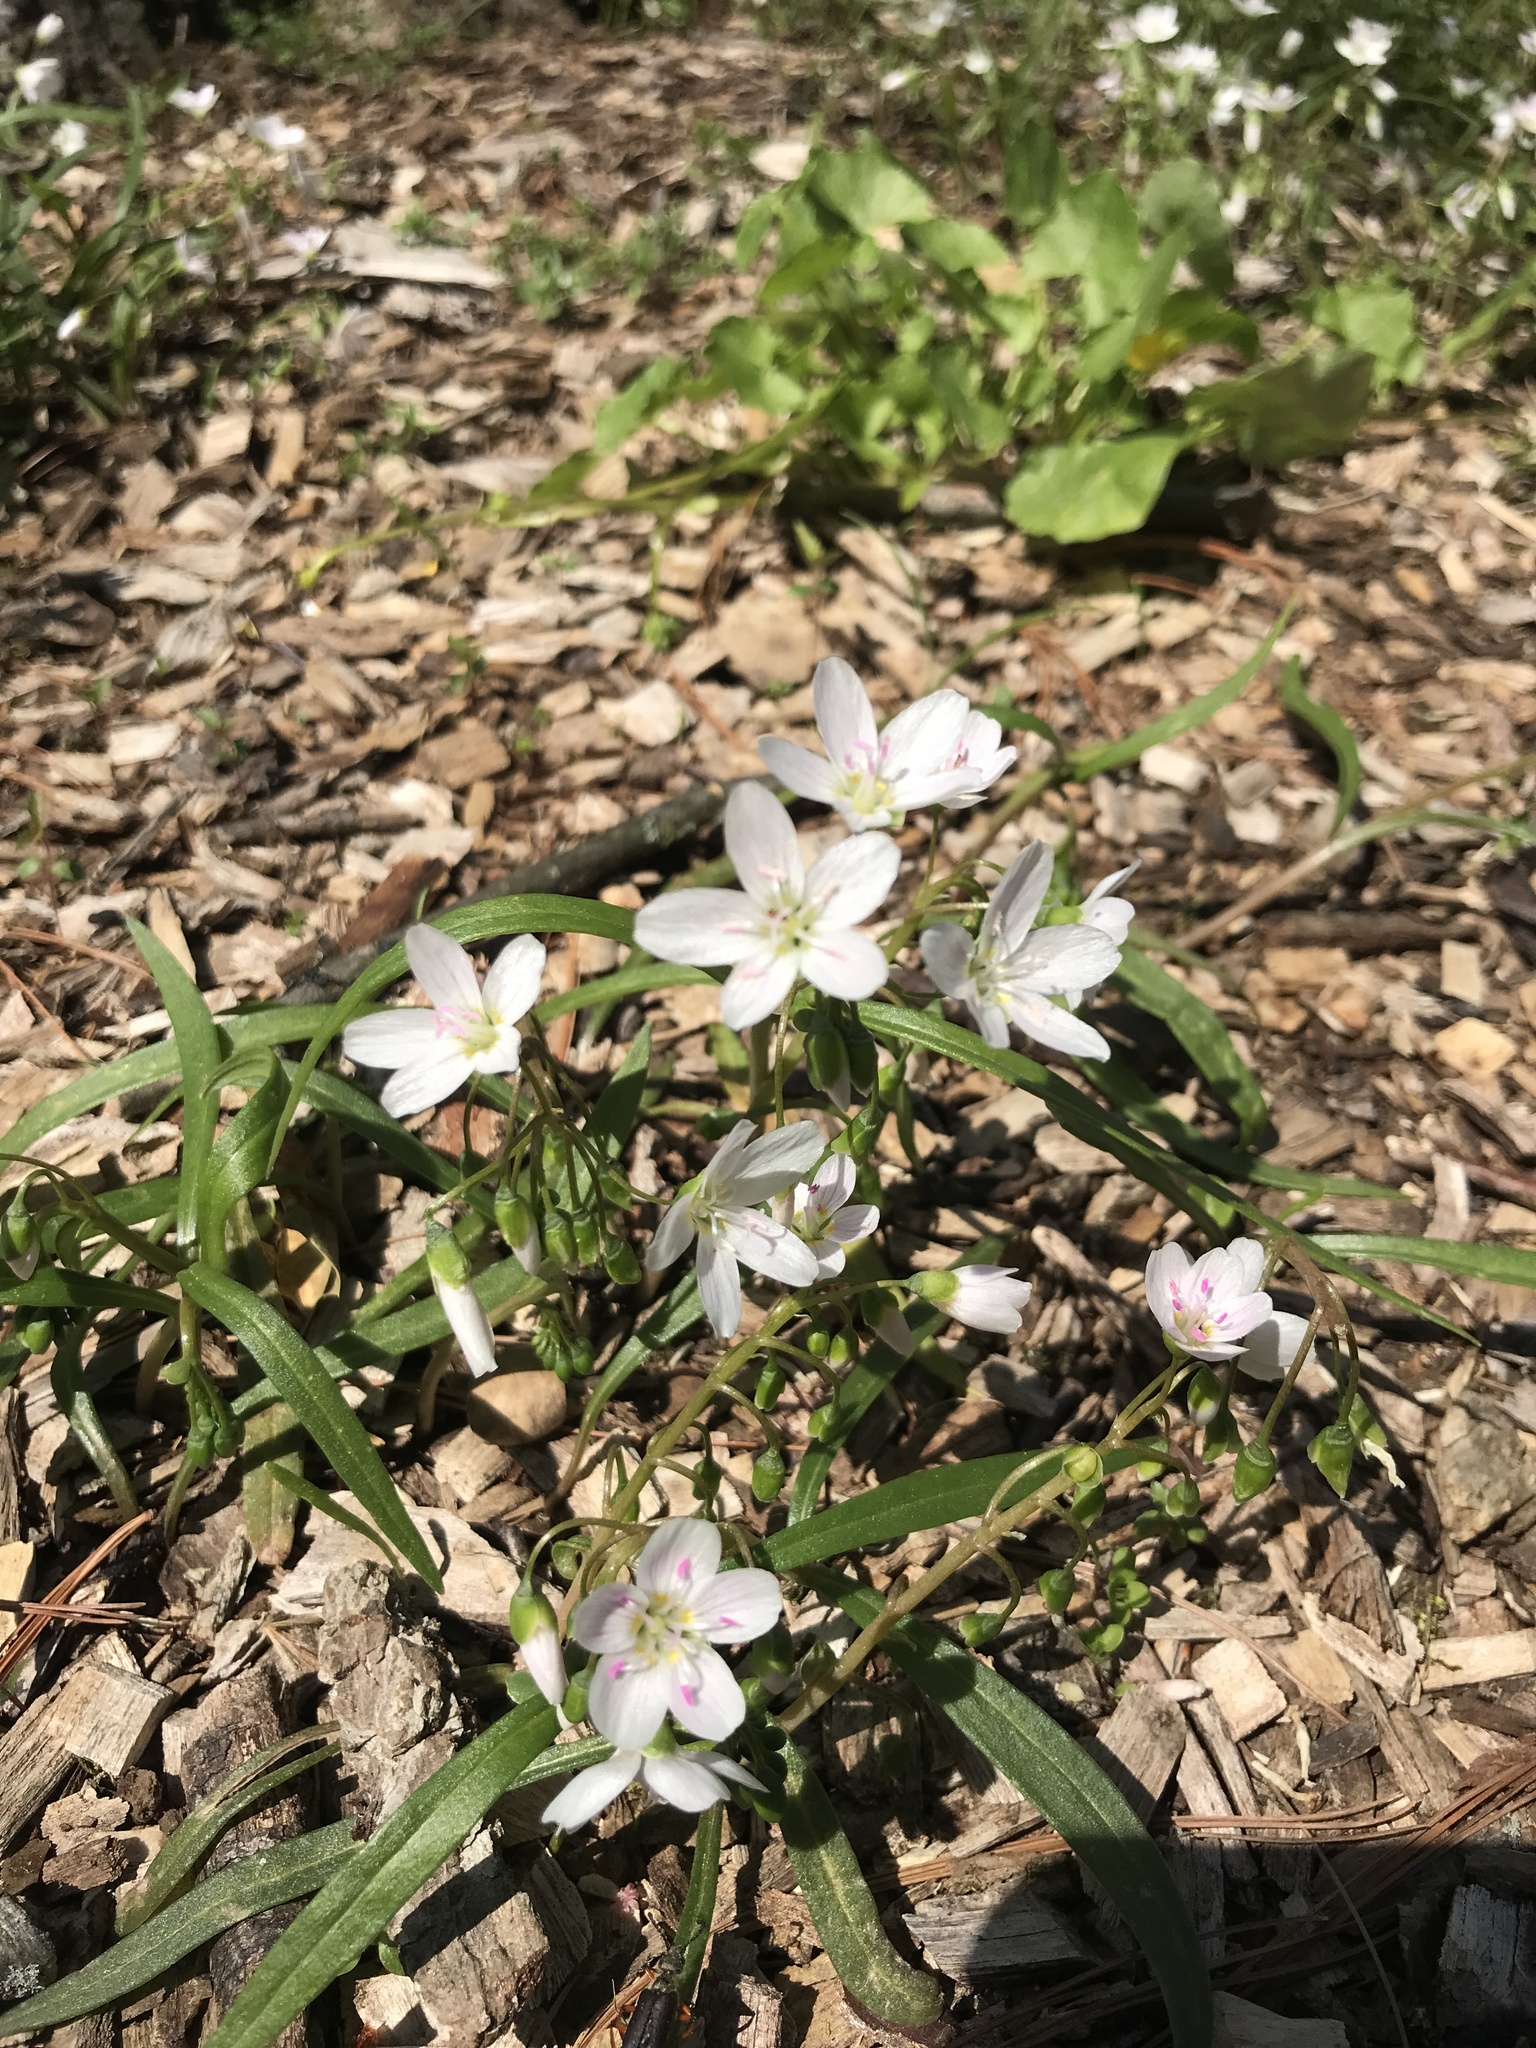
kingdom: Plantae
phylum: Tracheophyta
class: Magnoliopsida
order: Caryophyllales
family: Montiaceae
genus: Claytonia
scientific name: Claytonia virginica
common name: Virginia springbeauty
